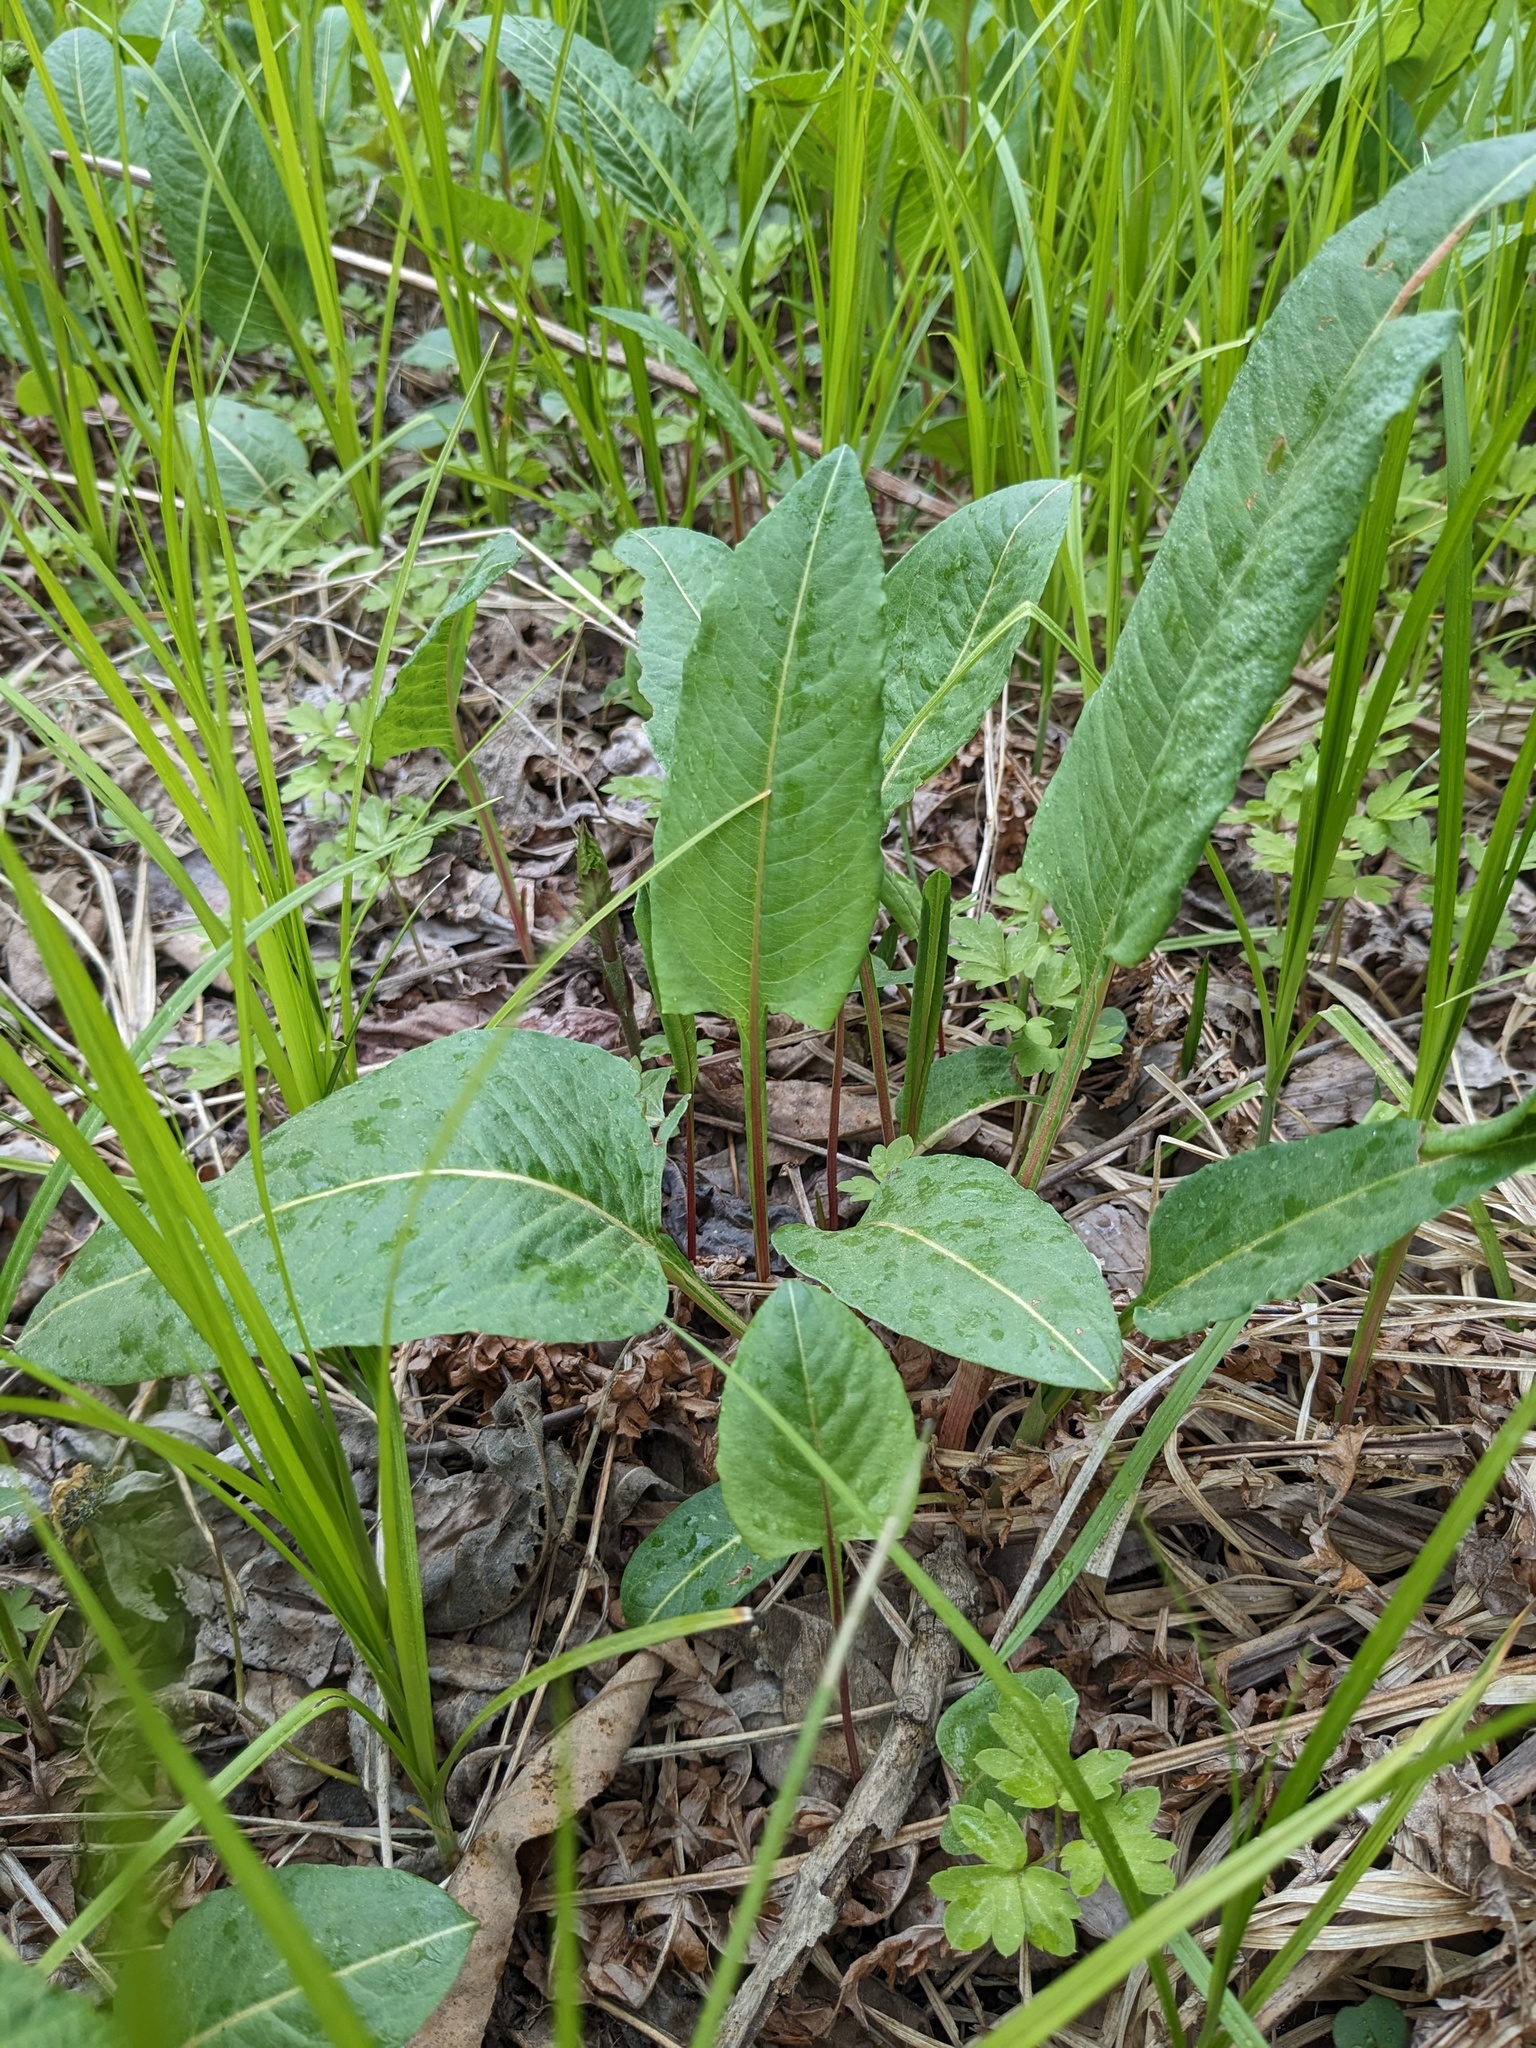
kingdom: Plantae
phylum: Tracheophyta
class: Magnoliopsida
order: Caryophyllales
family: Polygonaceae
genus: Bistorta
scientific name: Bistorta officinalis
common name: Common bistort
